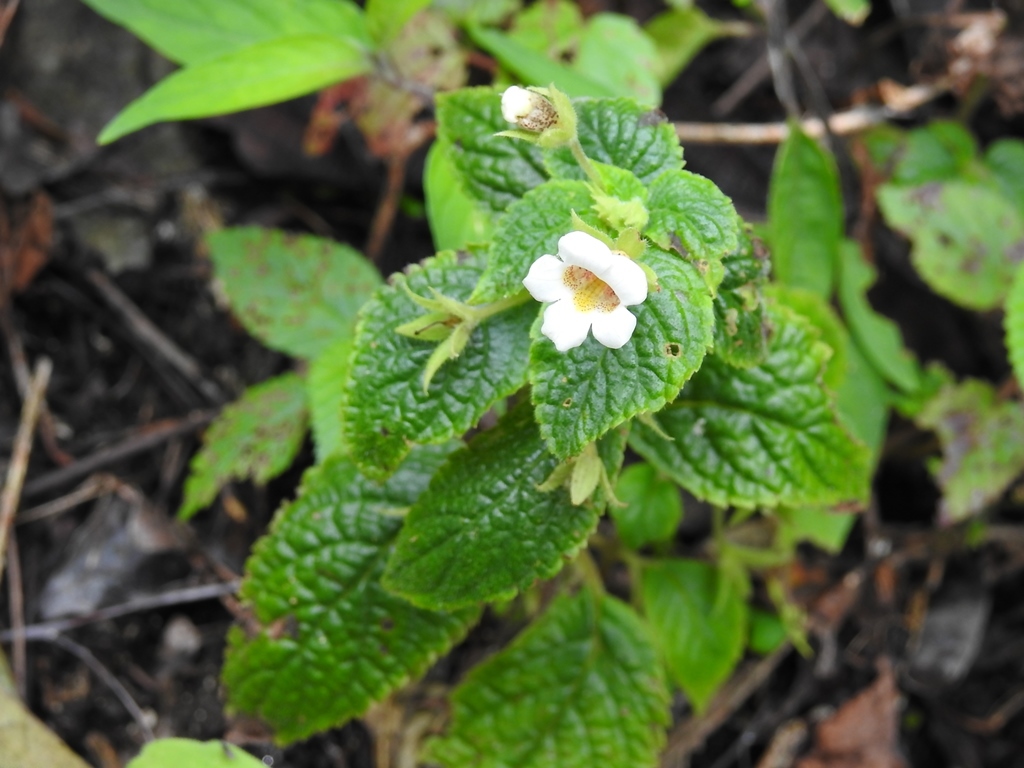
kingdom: Plantae
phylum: Tracheophyta
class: Magnoliopsida
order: Lamiales
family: Gesneriaceae
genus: Achimenes
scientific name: Achimenes misera
